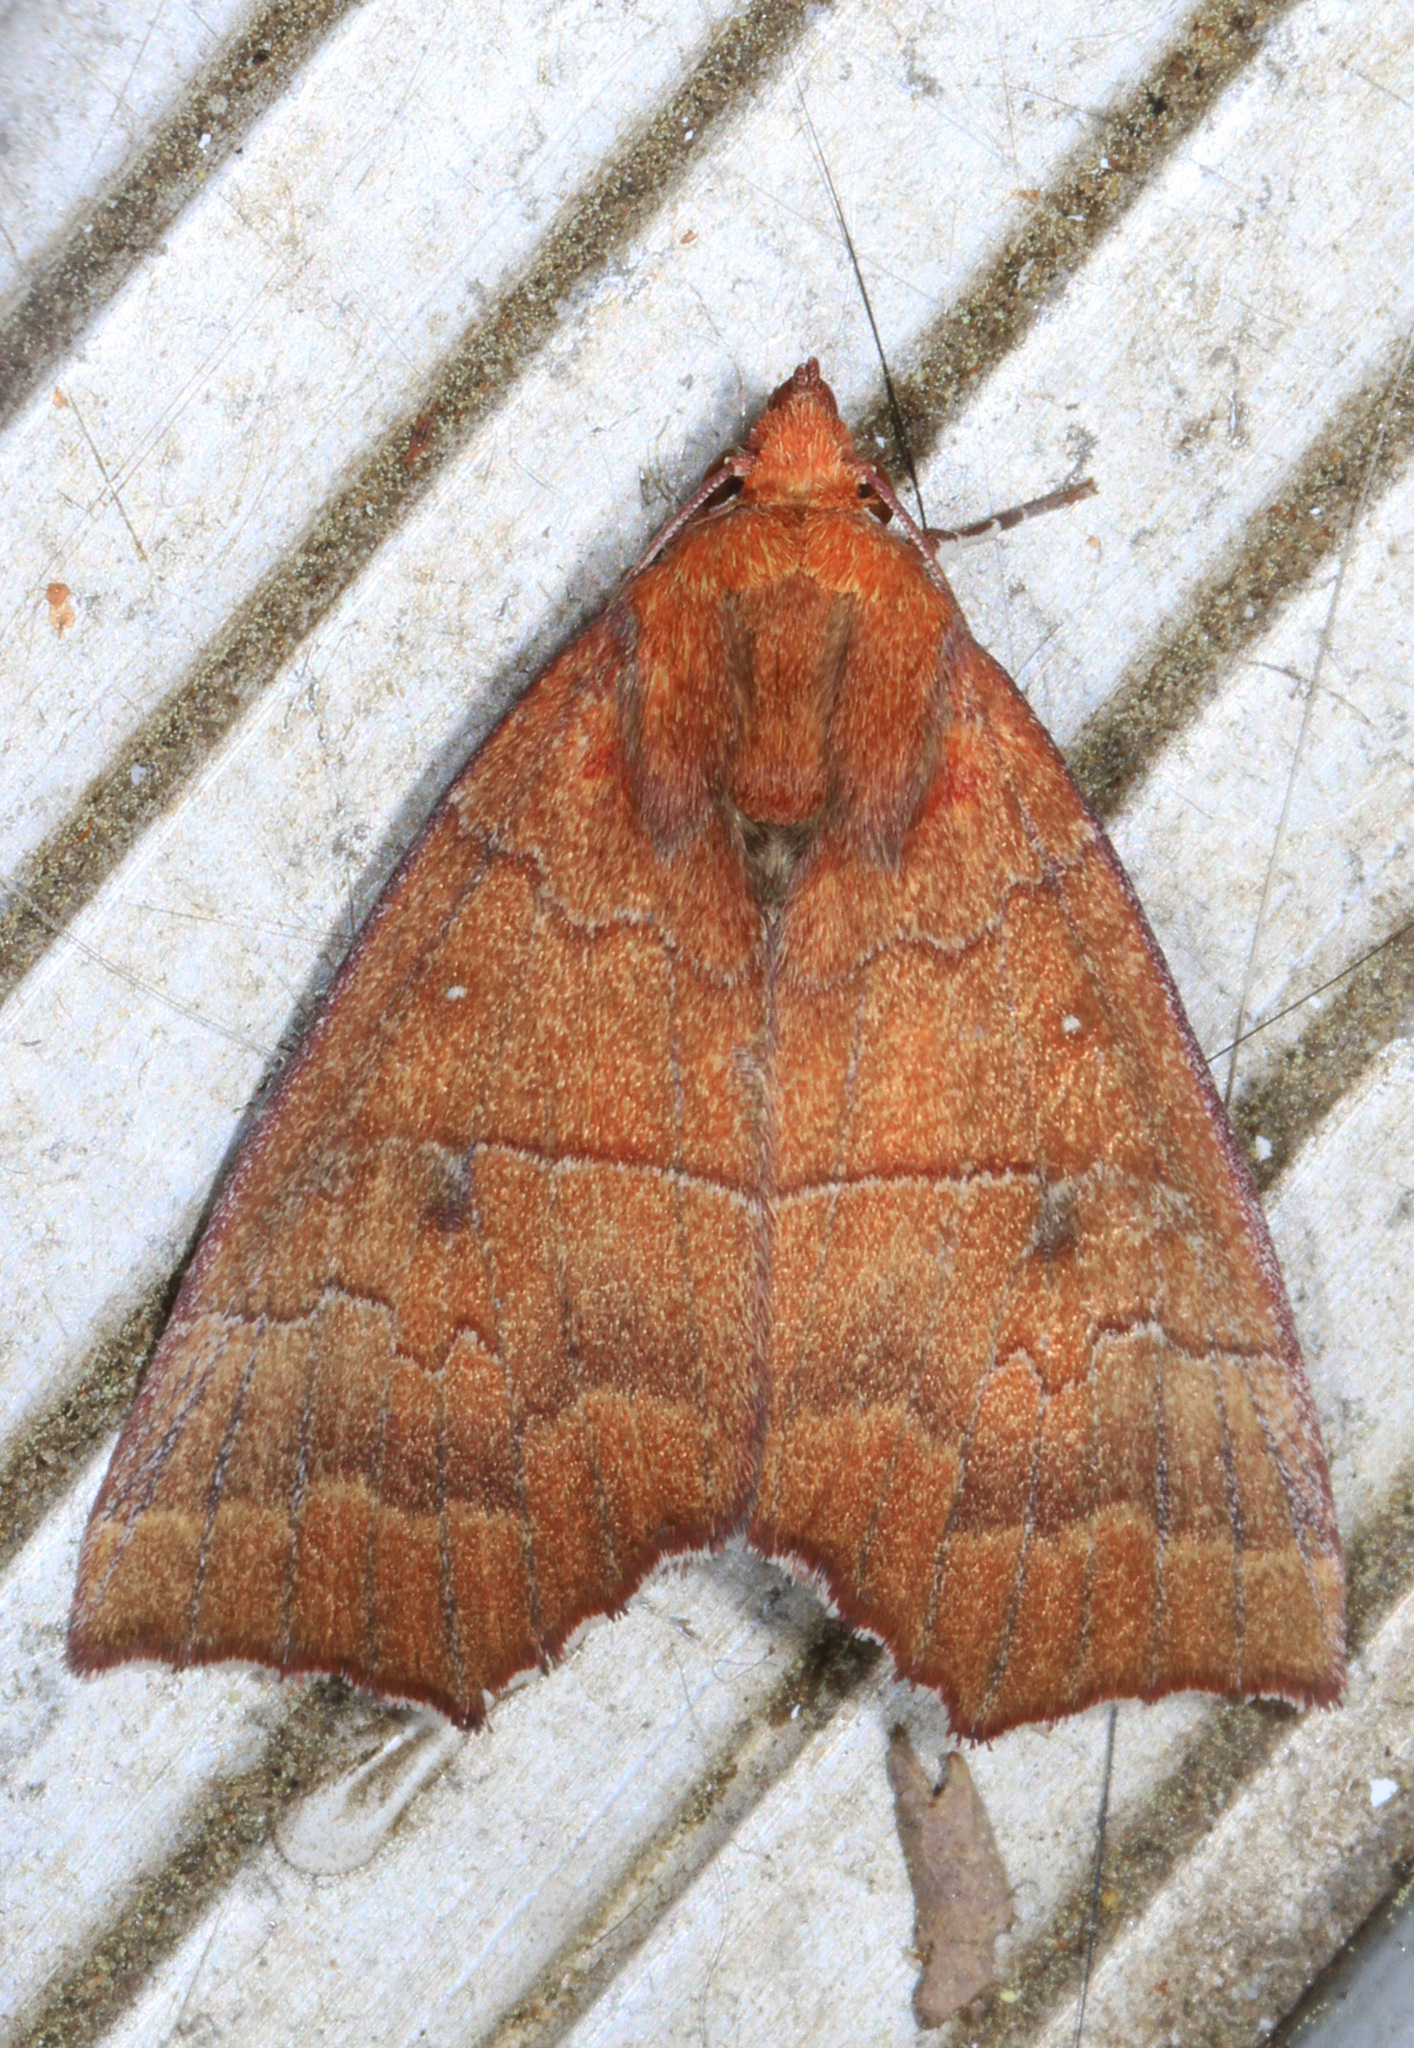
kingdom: Animalia
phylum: Arthropoda
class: Insecta
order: Lepidoptera
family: Erebidae
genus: Rusicada
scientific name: Rusicada privata
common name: Hibiscus leaf caterpillar moth
